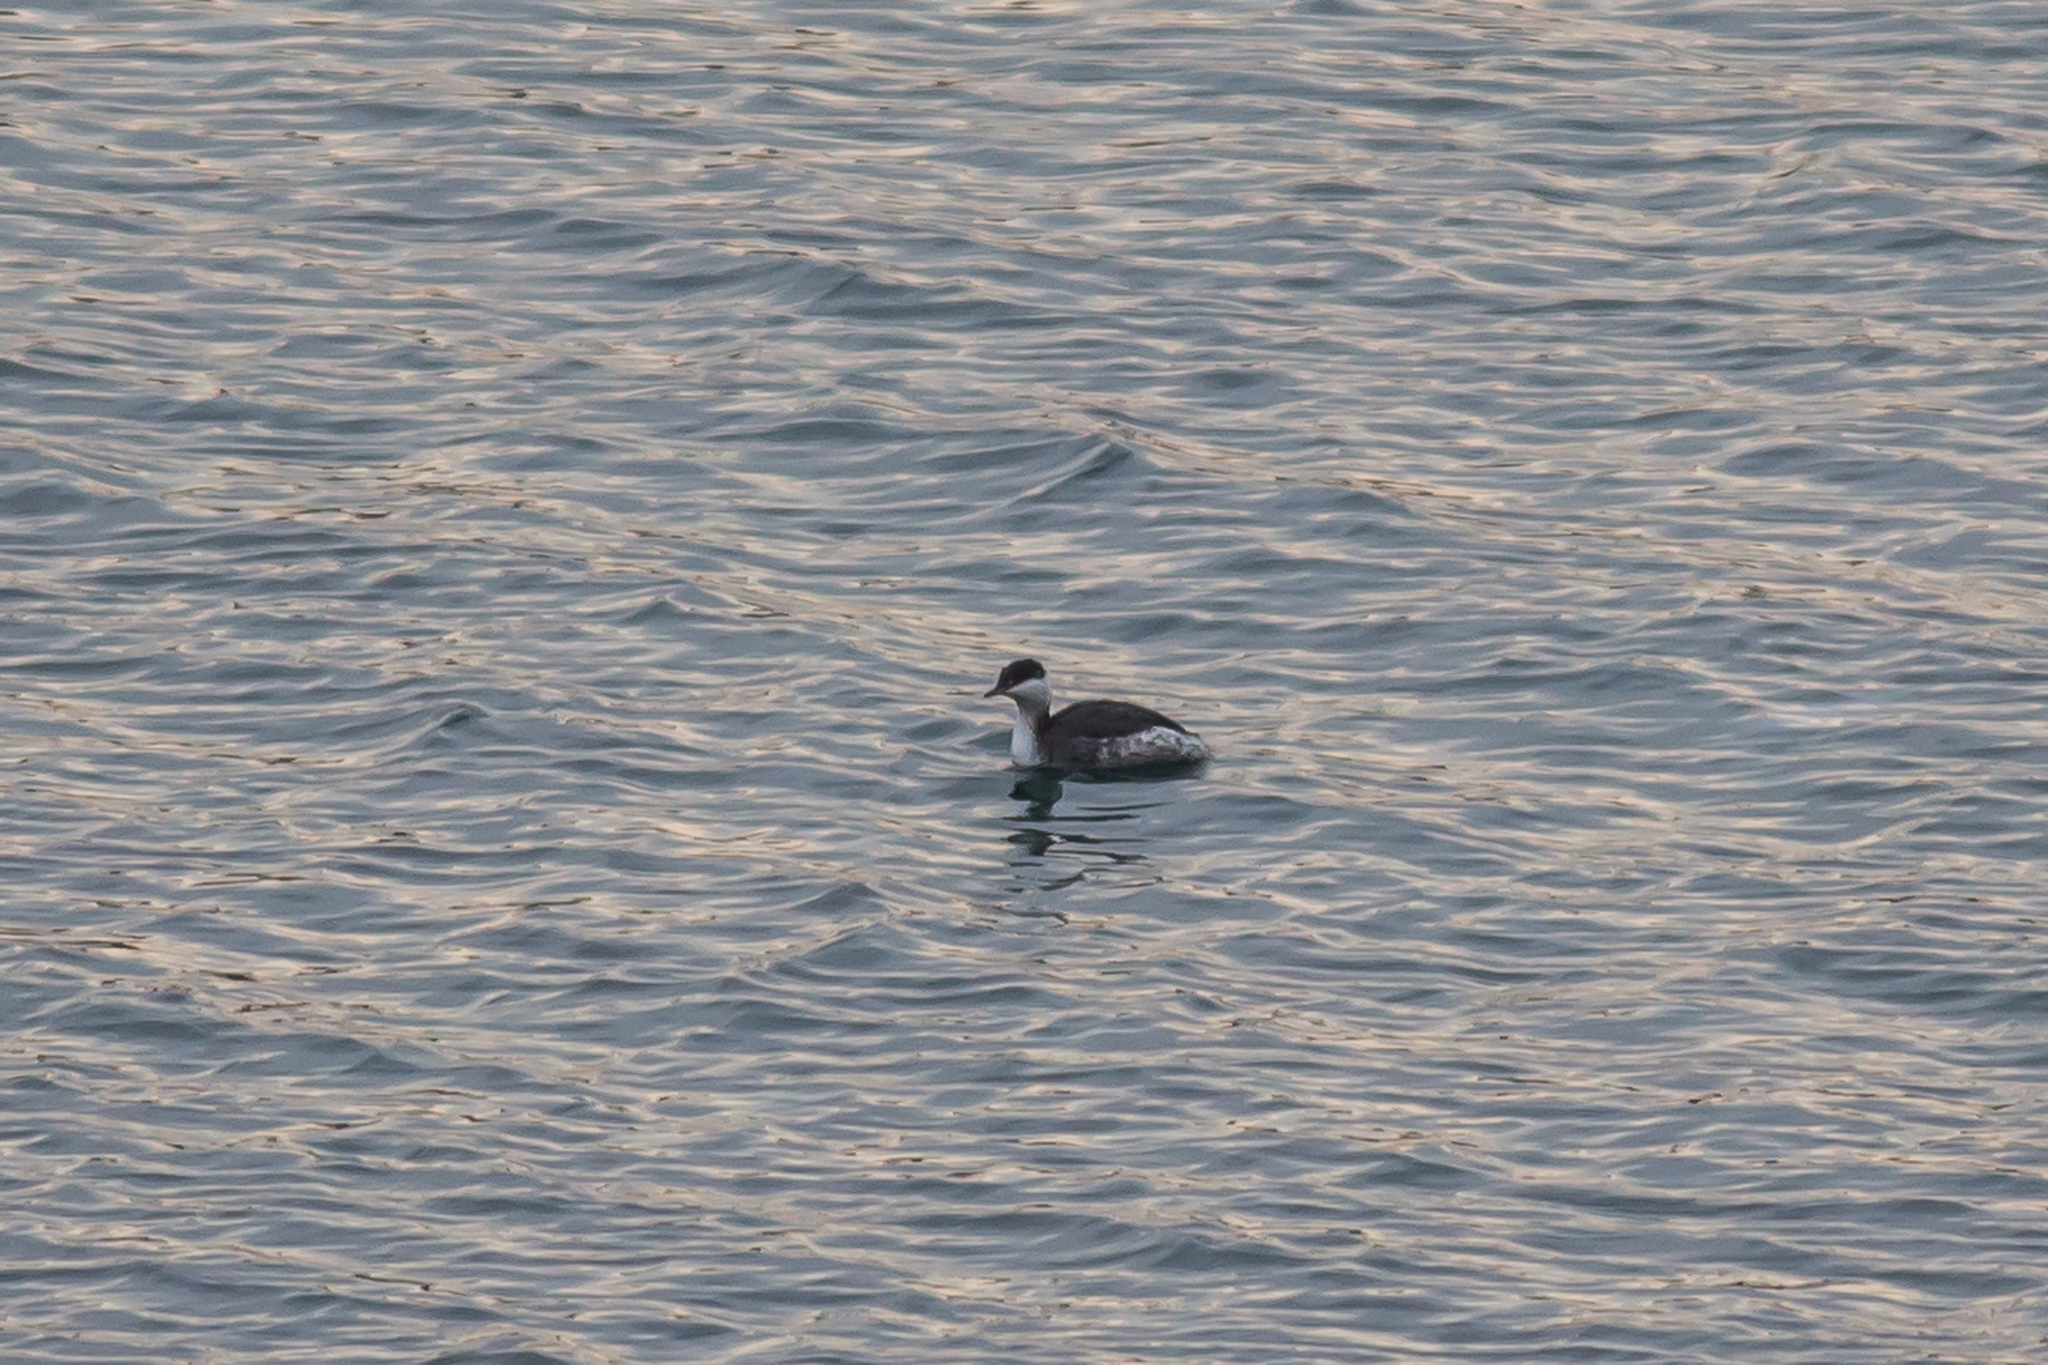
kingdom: Animalia
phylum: Chordata
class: Aves
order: Podicipediformes
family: Podicipedidae
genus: Podiceps
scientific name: Podiceps auritus
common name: Horned grebe
